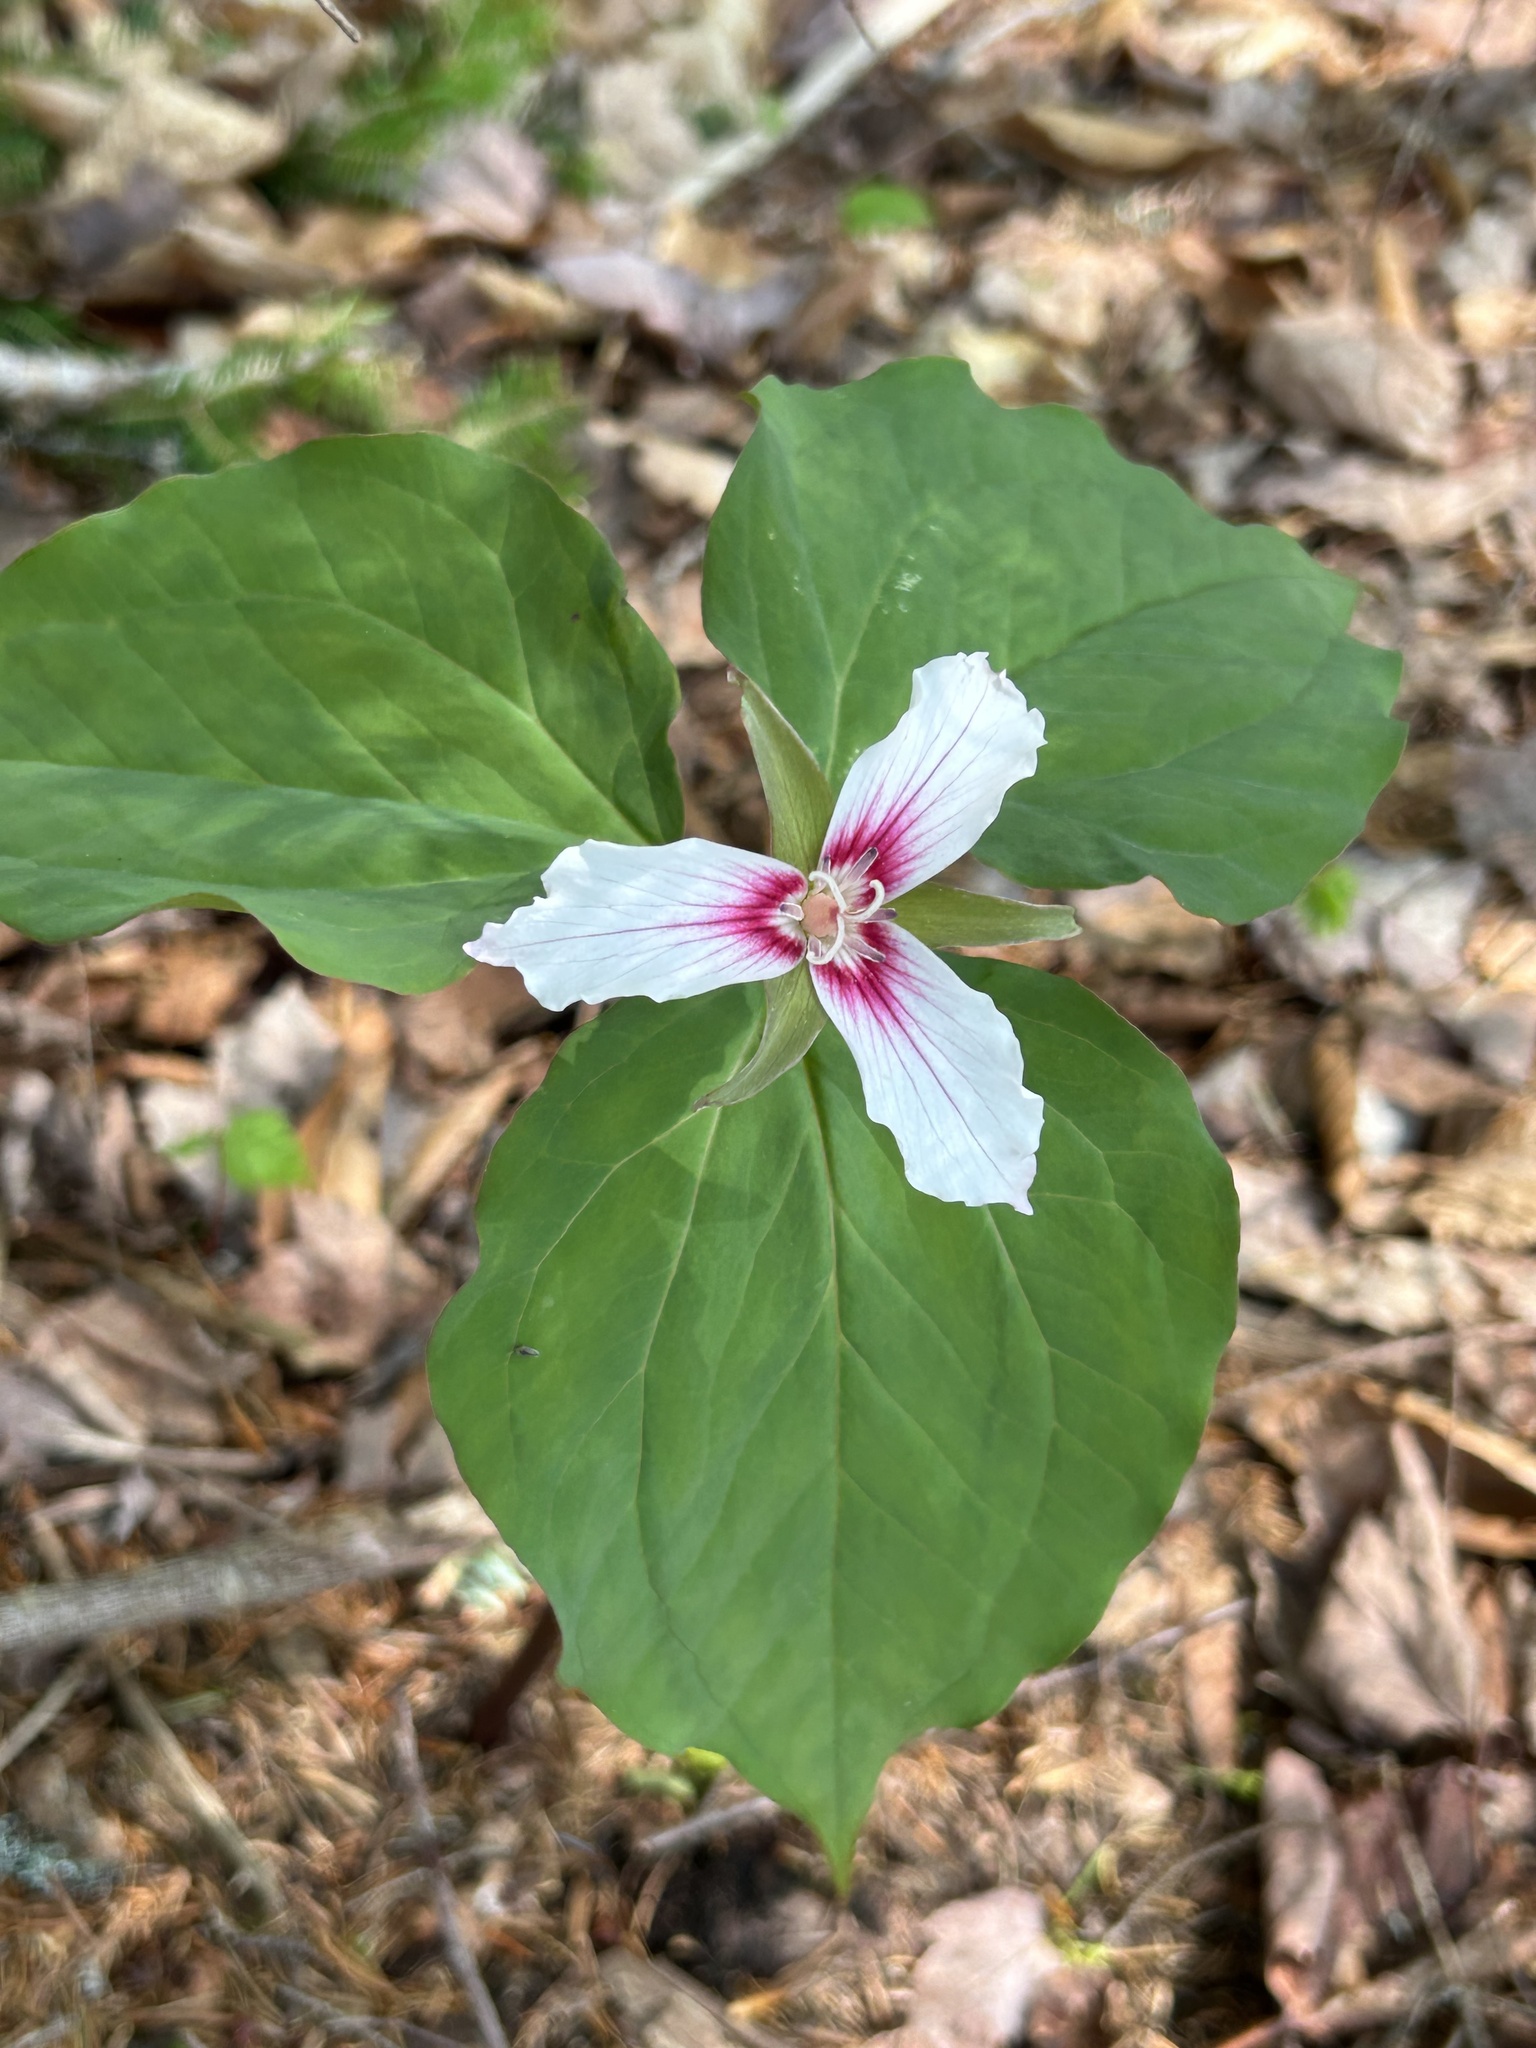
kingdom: Plantae
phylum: Tracheophyta
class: Liliopsida
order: Liliales
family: Melanthiaceae
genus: Trillium
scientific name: Trillium undulatum
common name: Paint trillium
